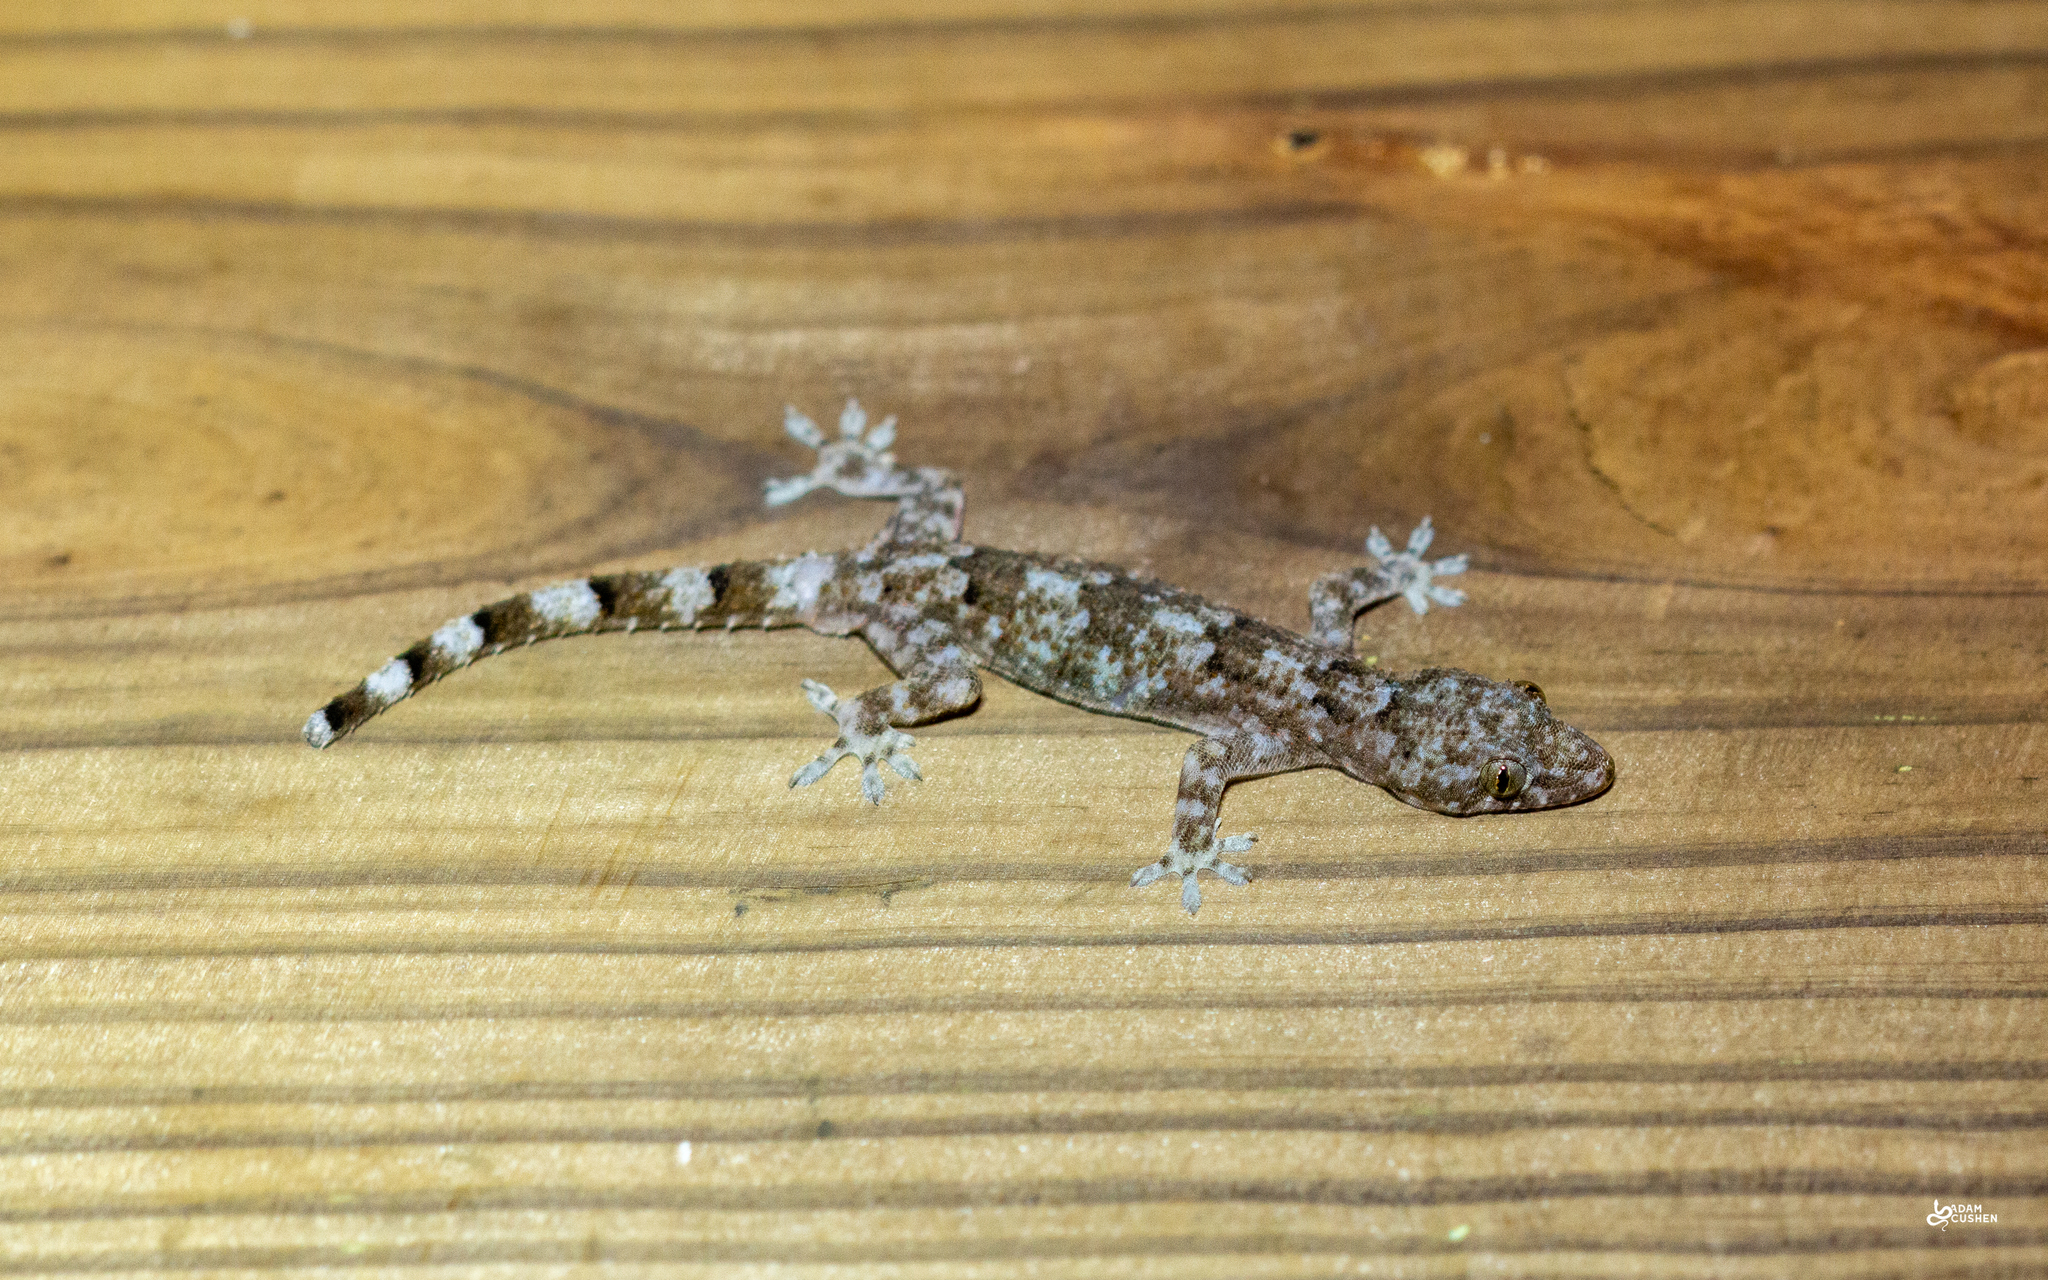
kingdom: Animalia
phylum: Chordata
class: Squamata
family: Gekkonidae
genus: Hemidactylus
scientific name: Hemidactylus mabouia
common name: House gecko
